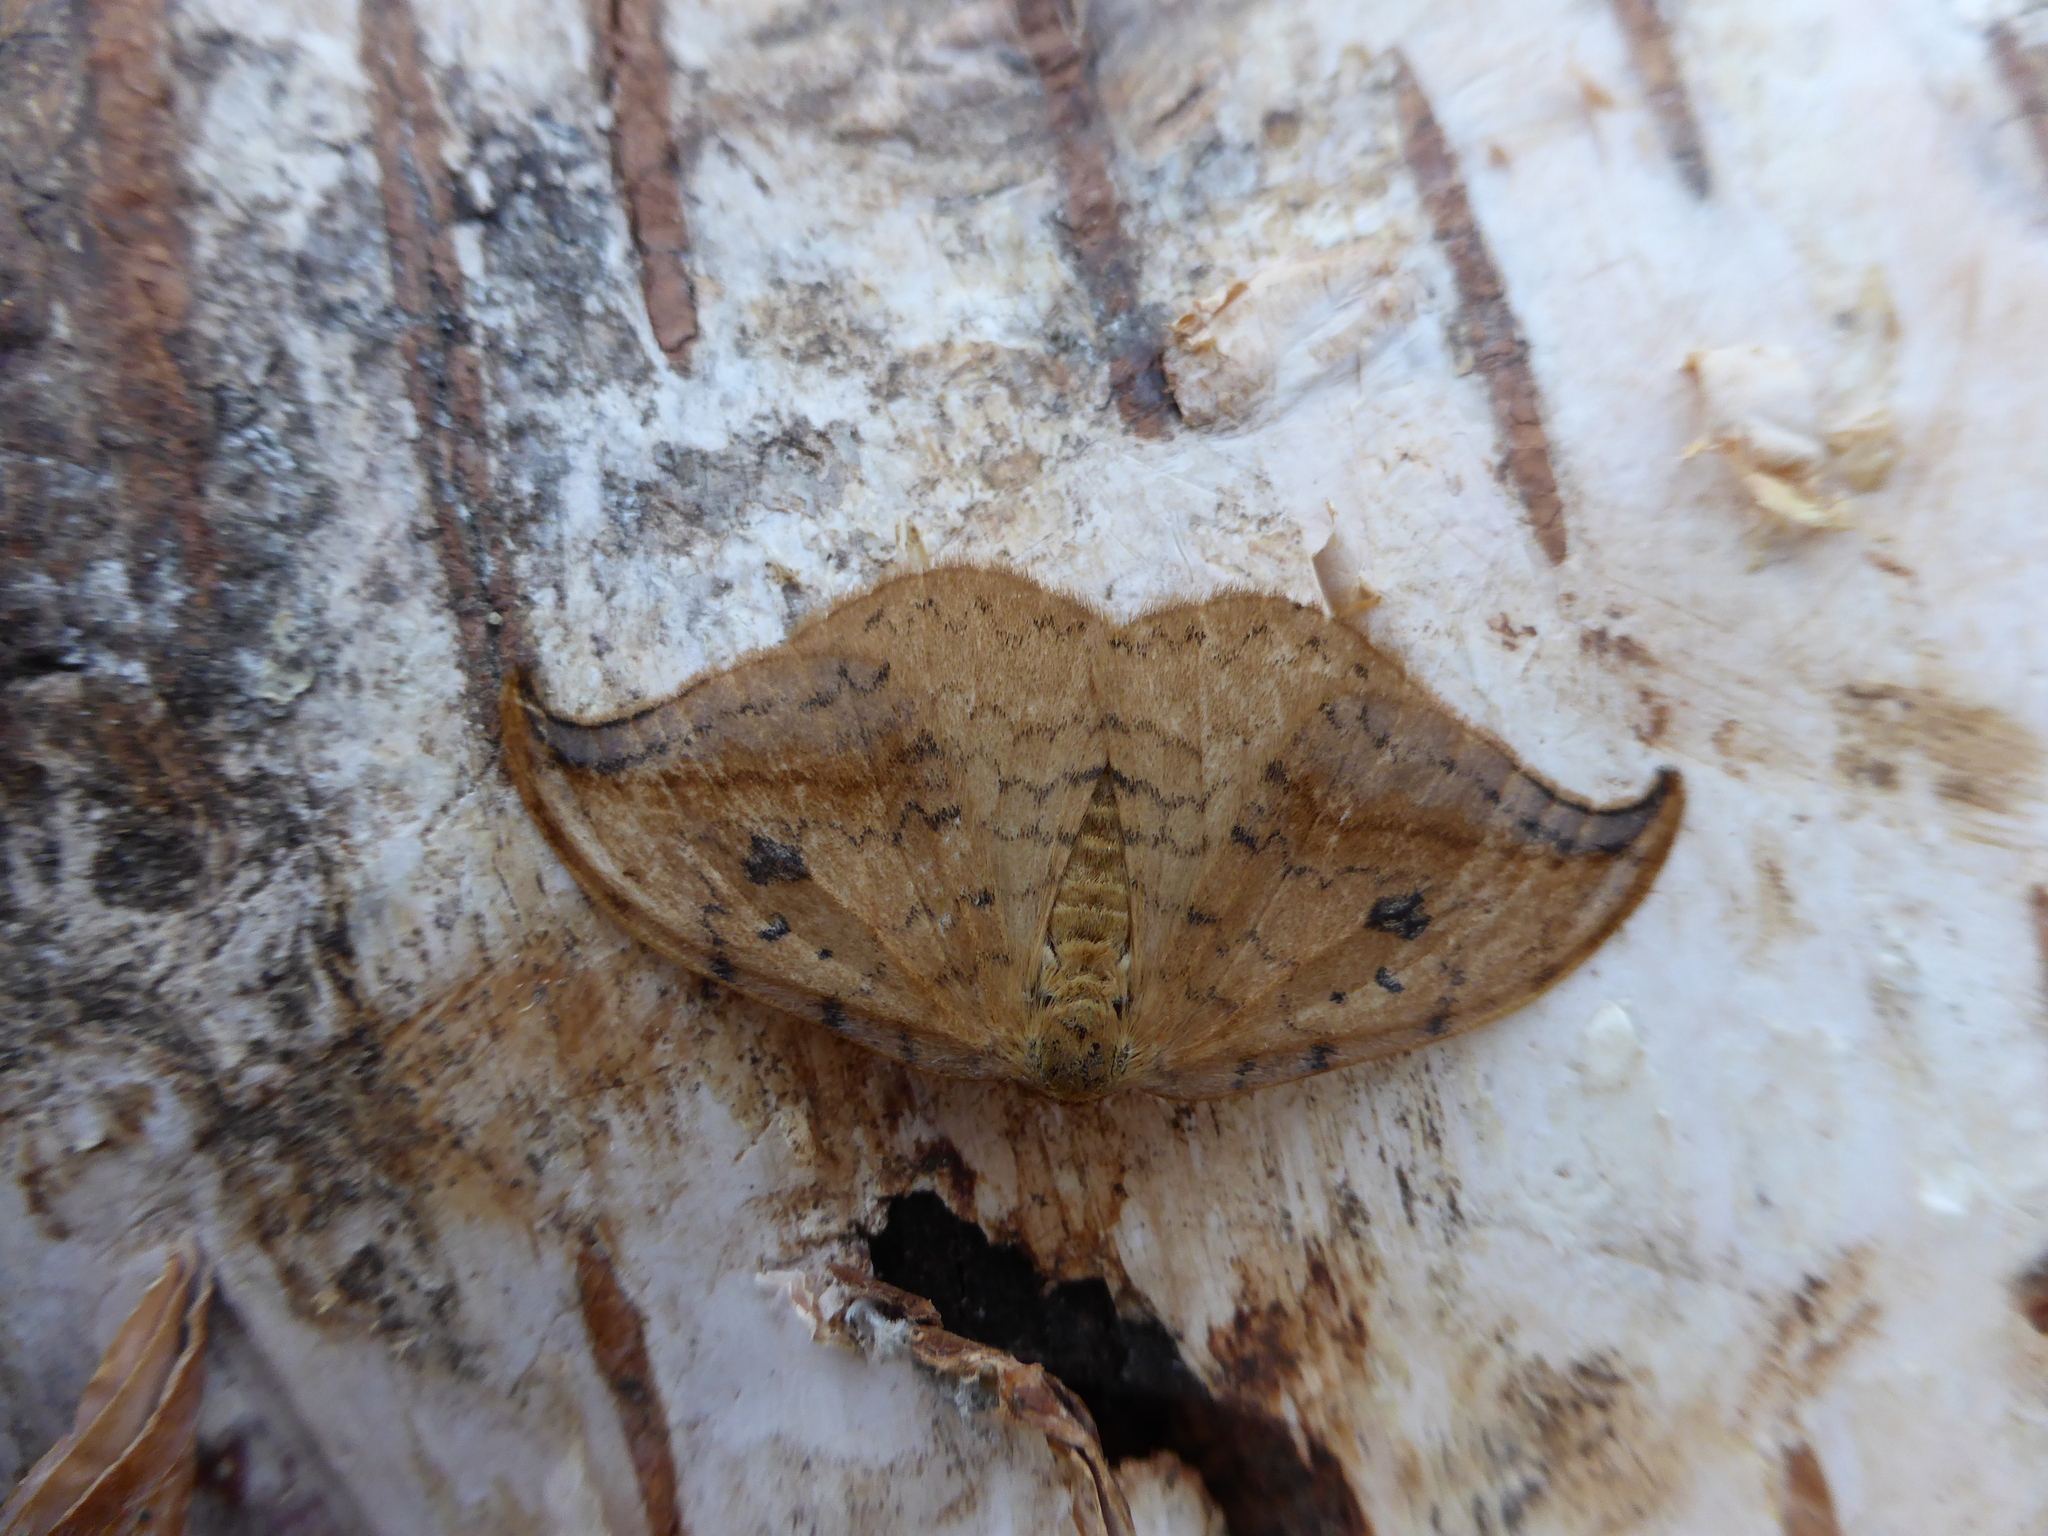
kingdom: Animalia
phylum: Arthropoda
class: Insecta
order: Lepidoptera
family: Drepanidae
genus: Drepana
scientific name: Drepana falcataria
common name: Pebble hook-tip
